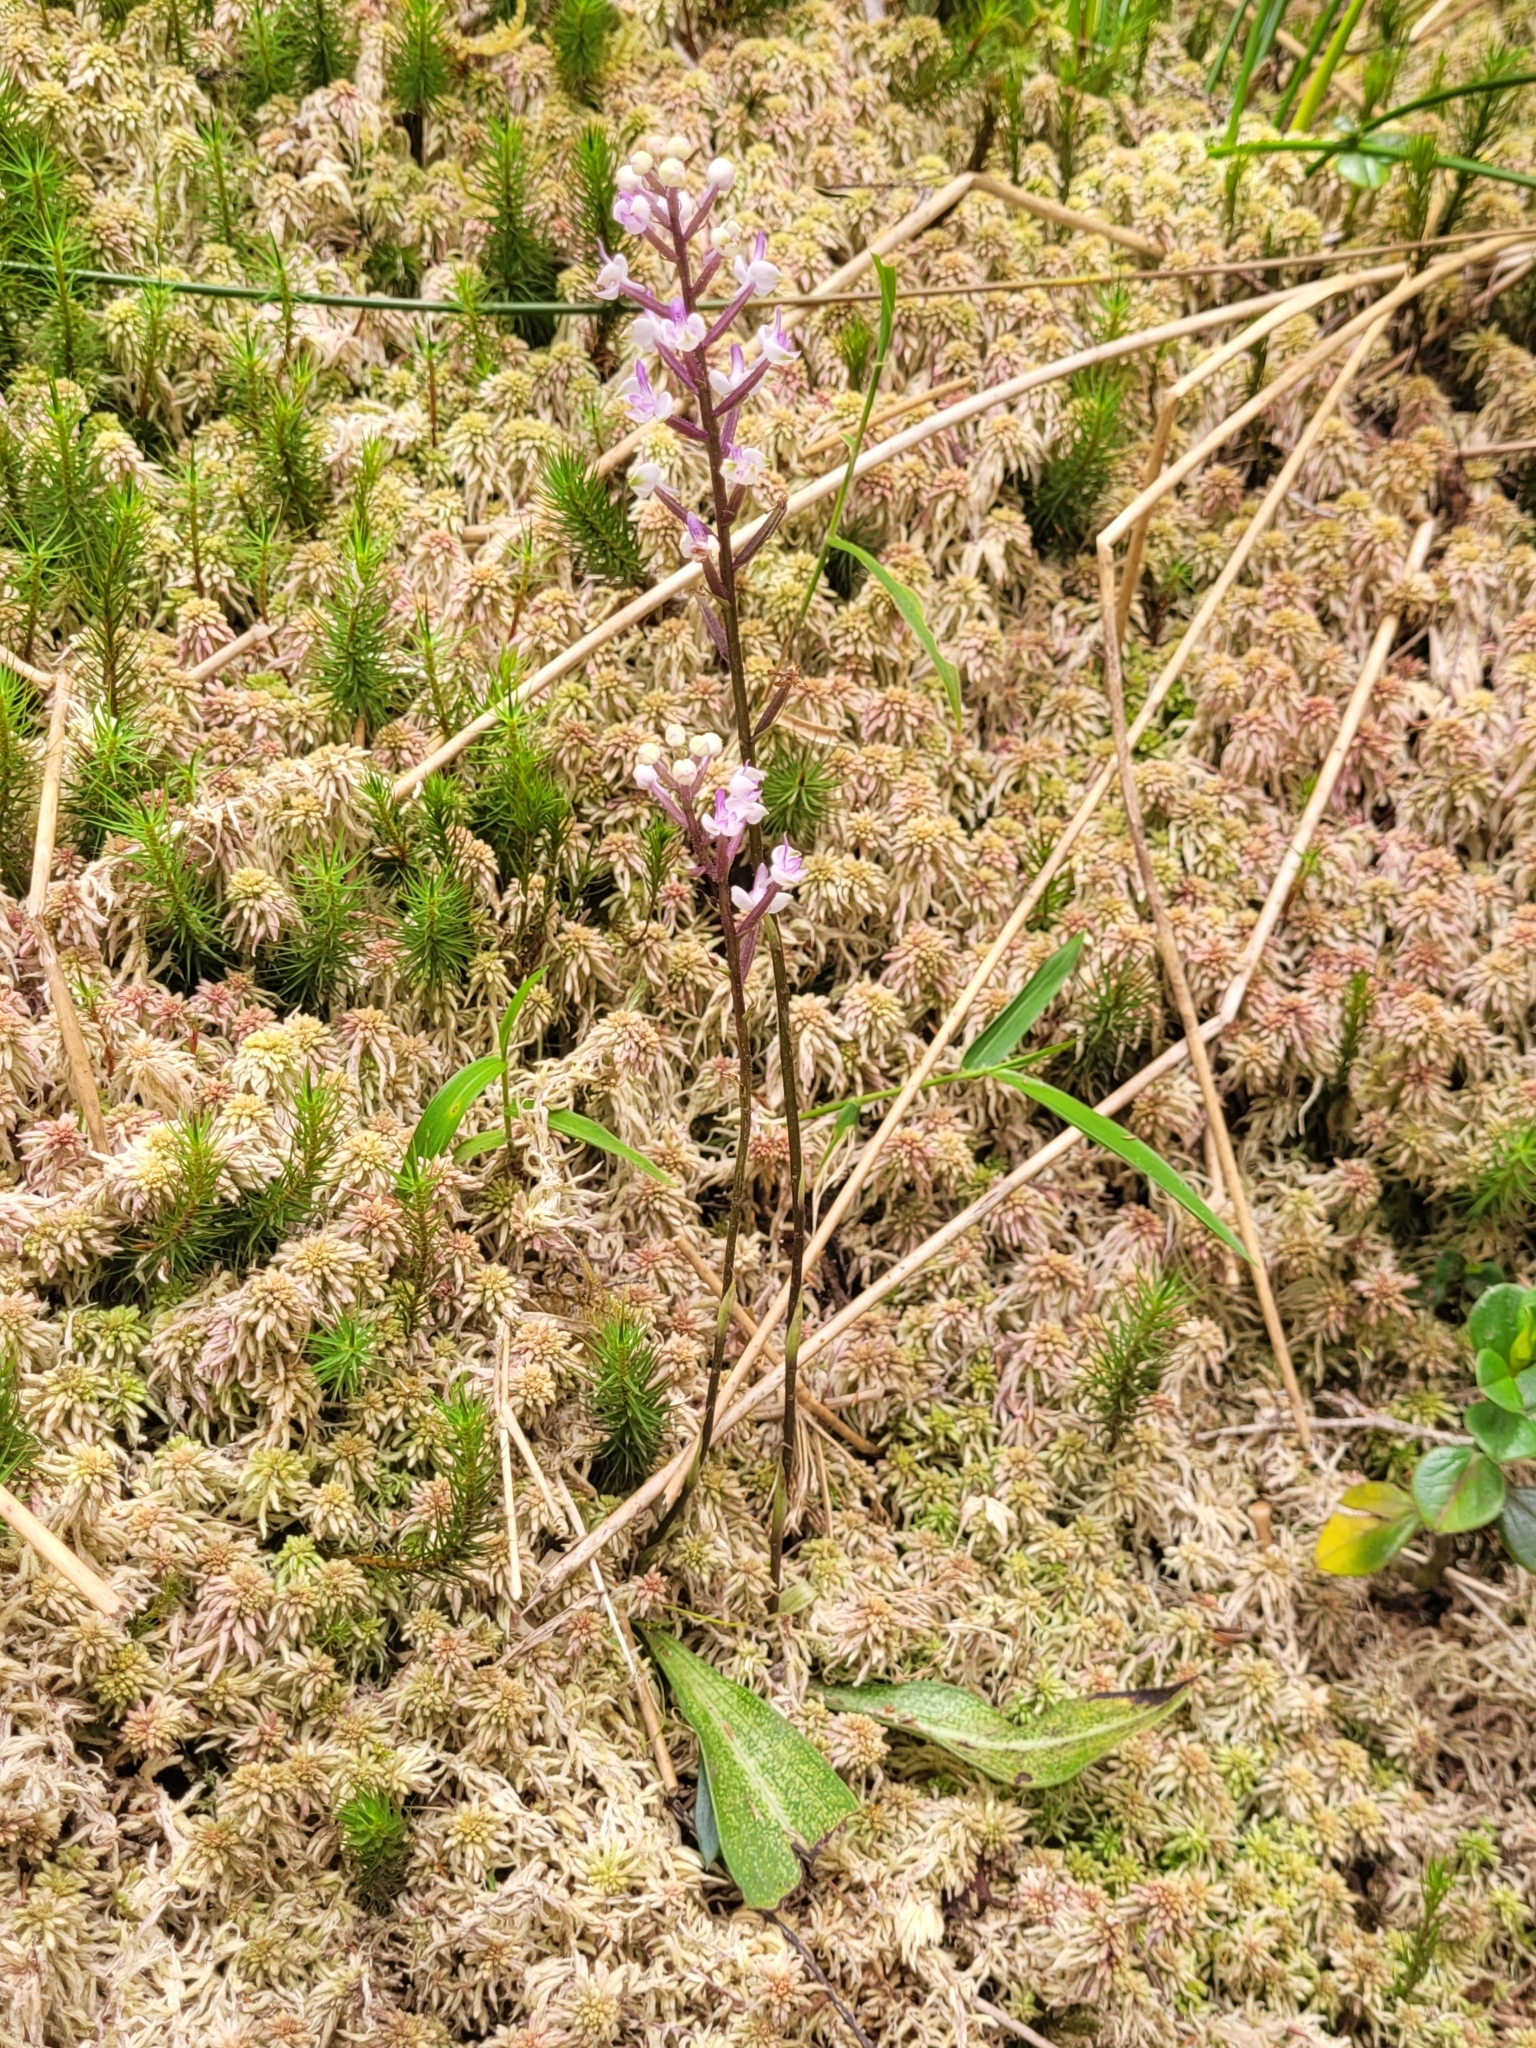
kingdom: Plantae
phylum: Tracheophyta
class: Liliopsida
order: Asparagales
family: Orchidaceae
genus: Cynorkis
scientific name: Cynorkis ridleyi
